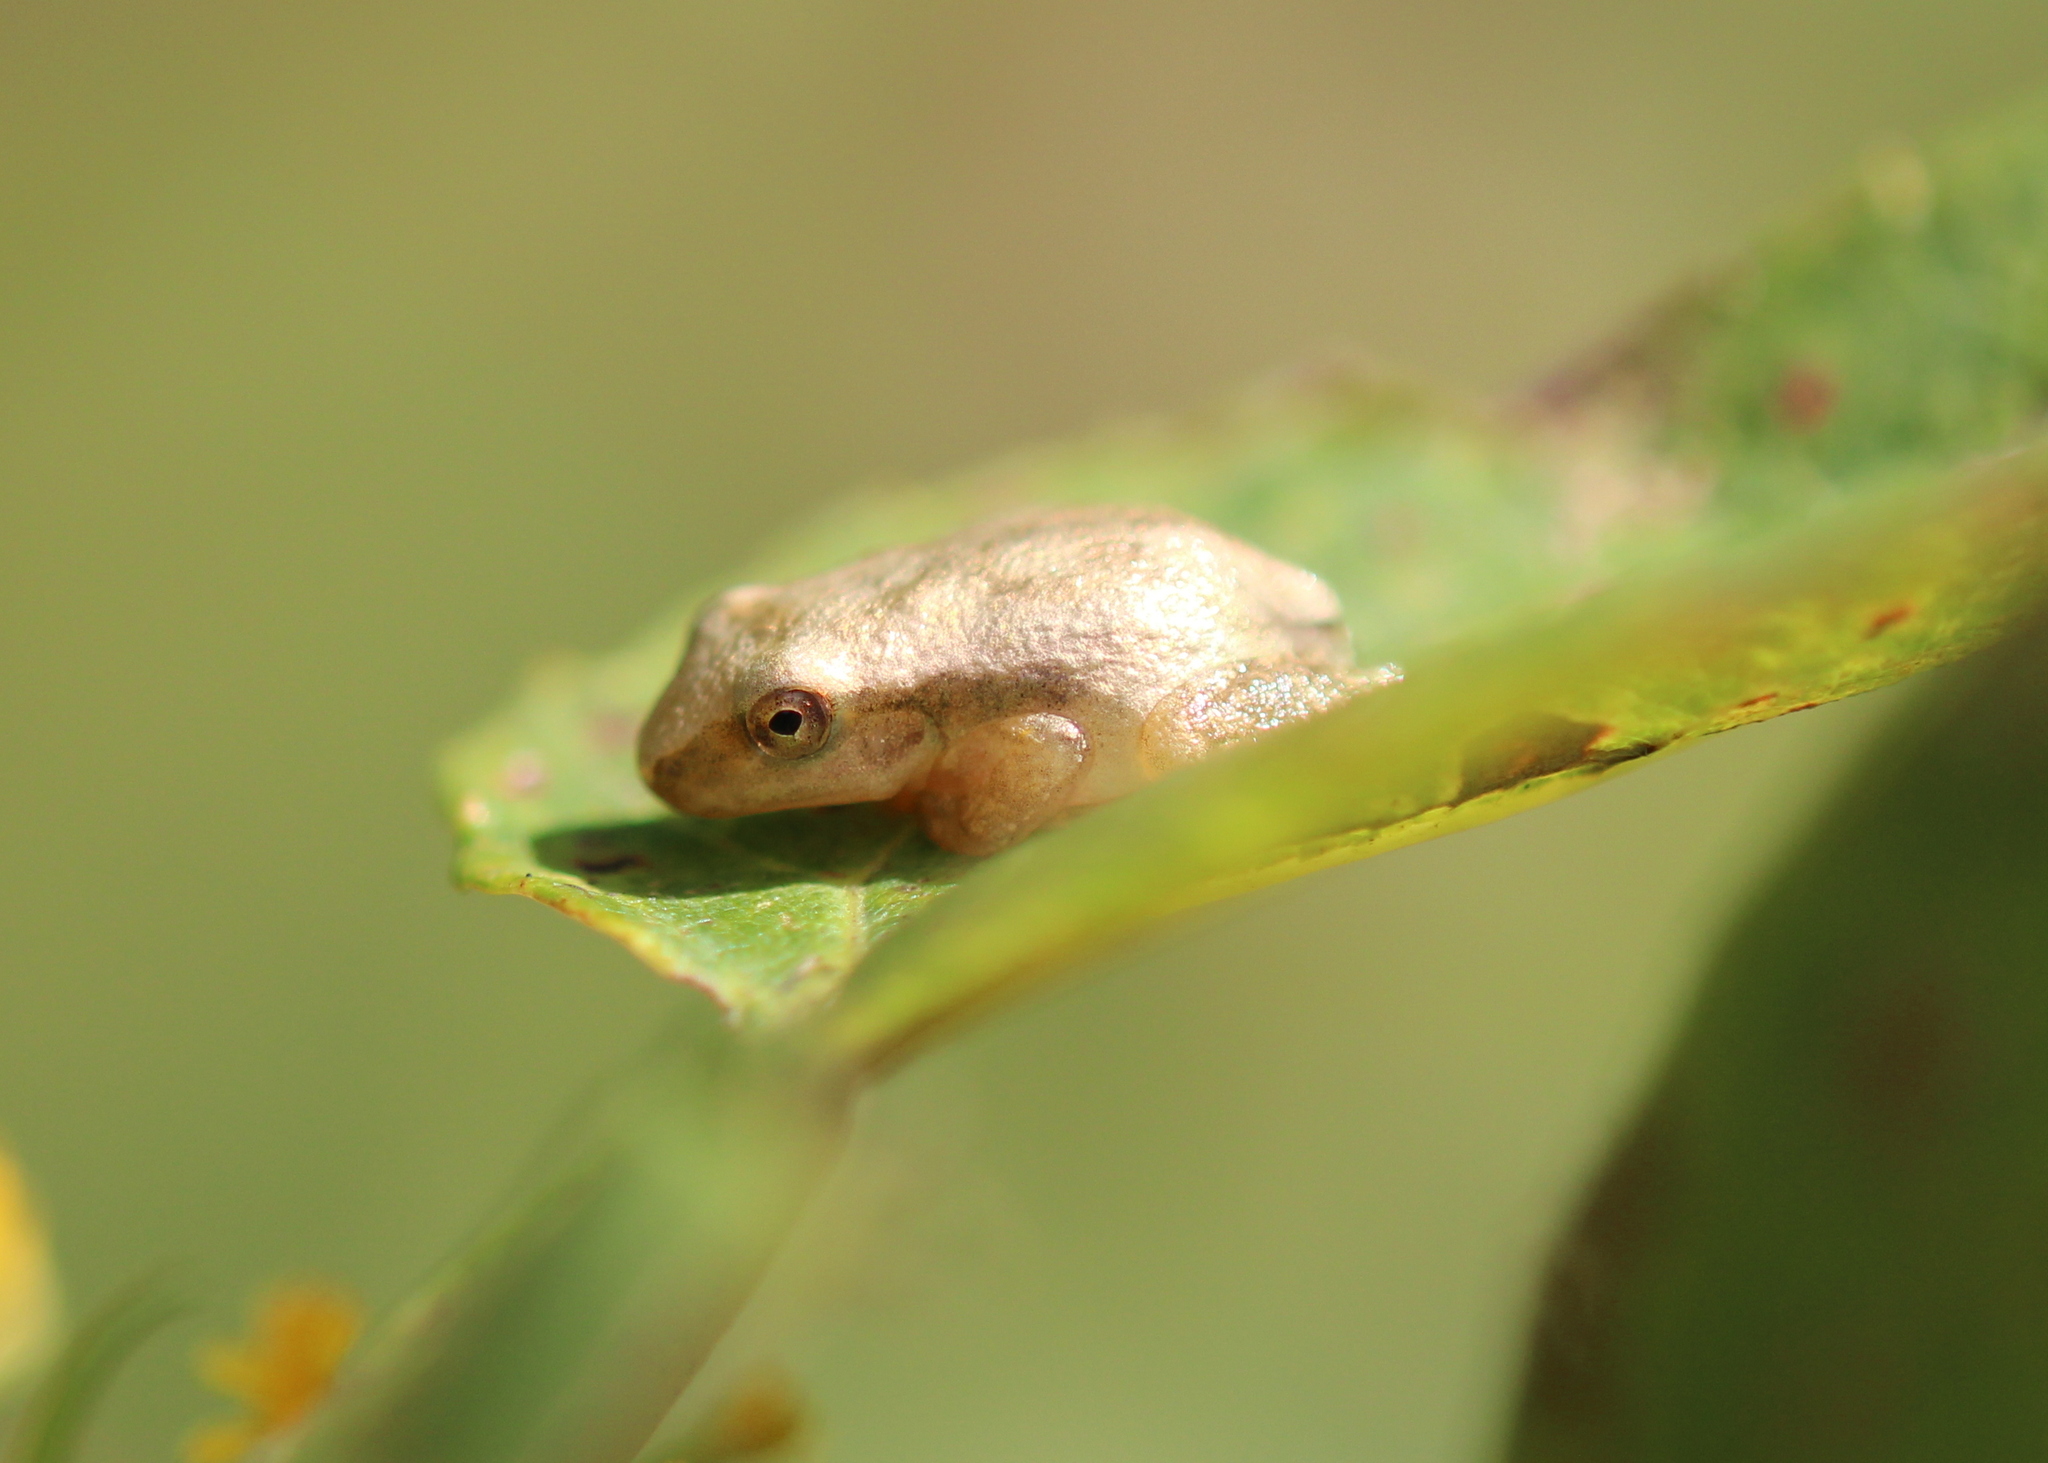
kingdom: Animalia
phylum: Chordata
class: Amphibia
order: Anura
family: Hylidae
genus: Pseudacris
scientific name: Pseudacris crucifer
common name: Spring peeper
